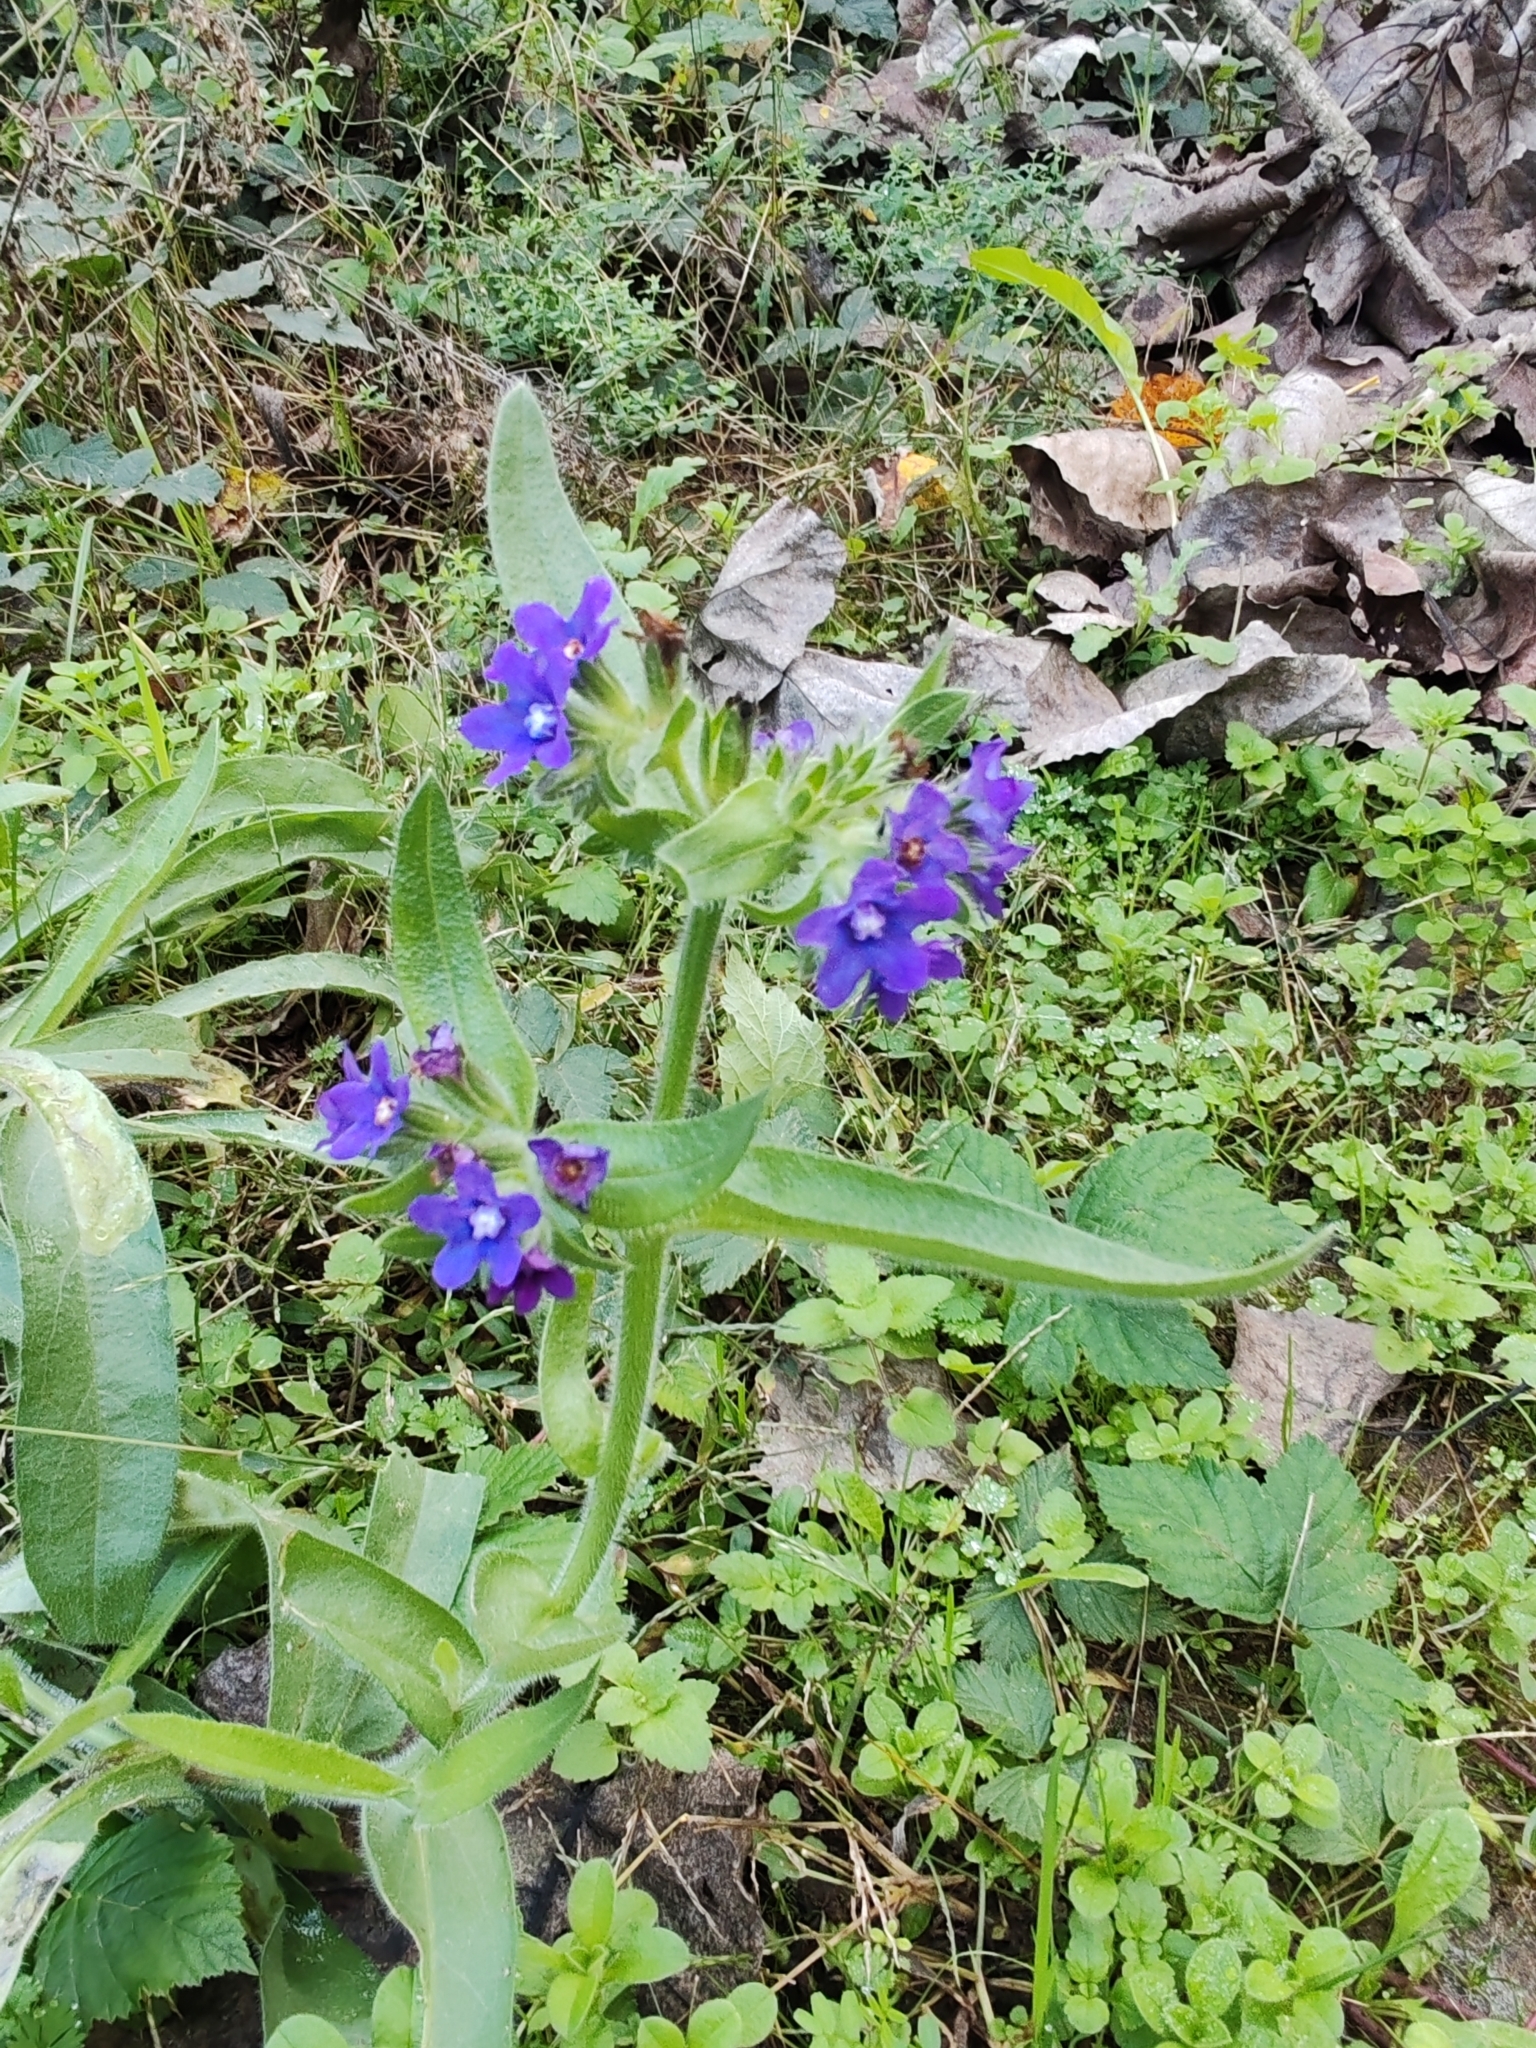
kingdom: Plantae
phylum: Tracheophyta
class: Magnoliopsida
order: Boraginales
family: Boraginaceae
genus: Anchusa
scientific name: Anchusa officinalis
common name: Alkanet
